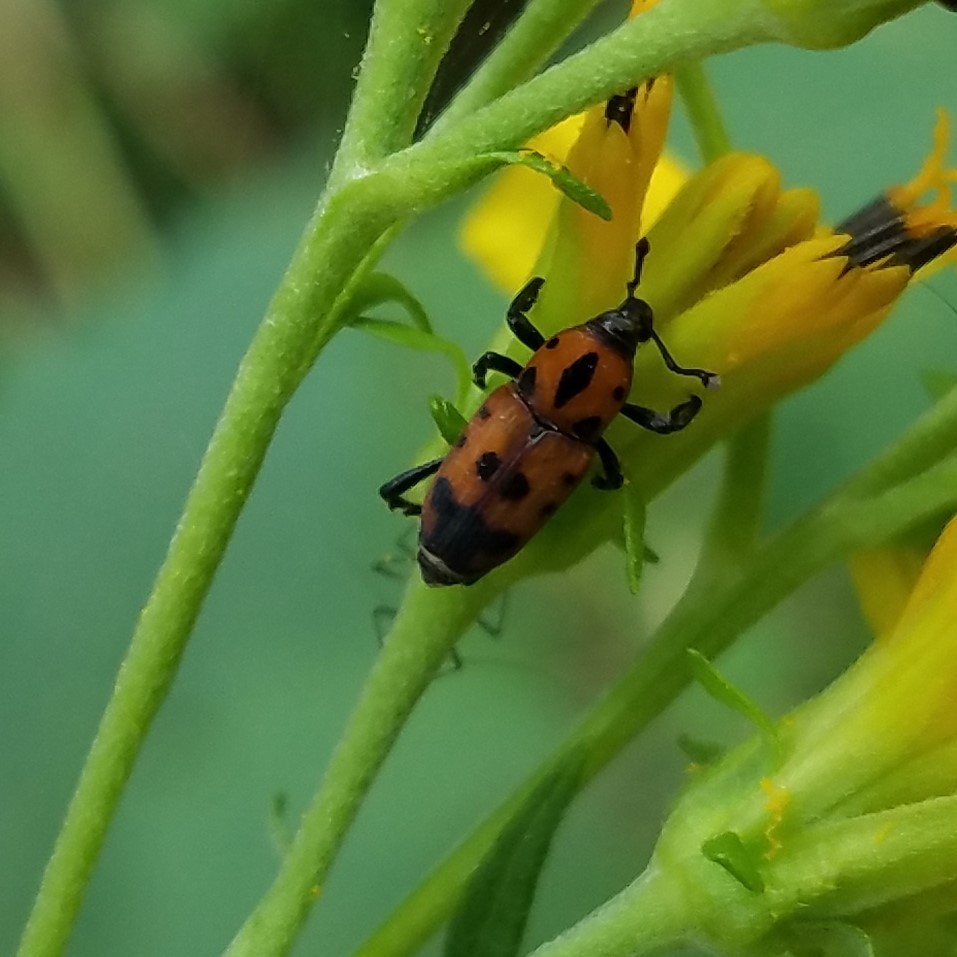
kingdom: Animalia
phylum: Arthropoda
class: Insecta
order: Coleoptera
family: Dryophthoridae
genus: Rhodobaenus
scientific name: Rhodobaenus quinquepunctatus
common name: Cocklebur weevil
